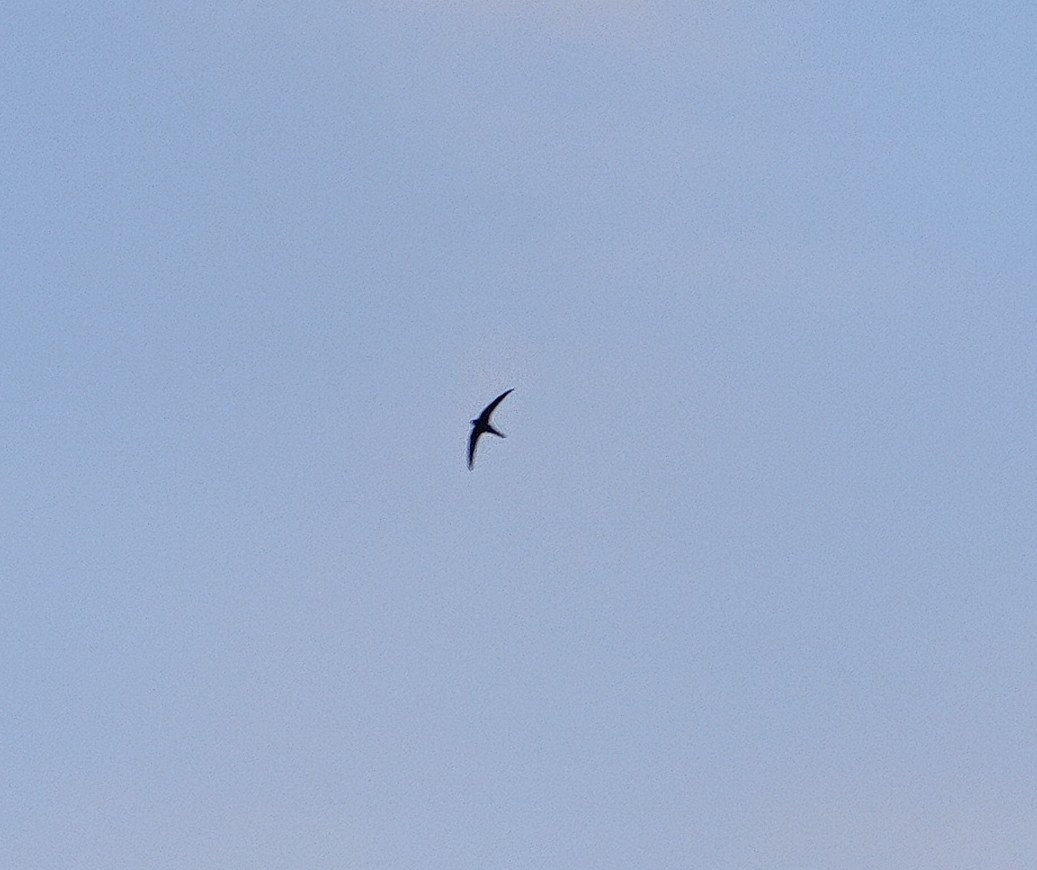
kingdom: Animalia
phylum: Chordata
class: Aves
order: Apodiformes
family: Apodidae
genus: Apus
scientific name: Apus apus
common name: Common swift
